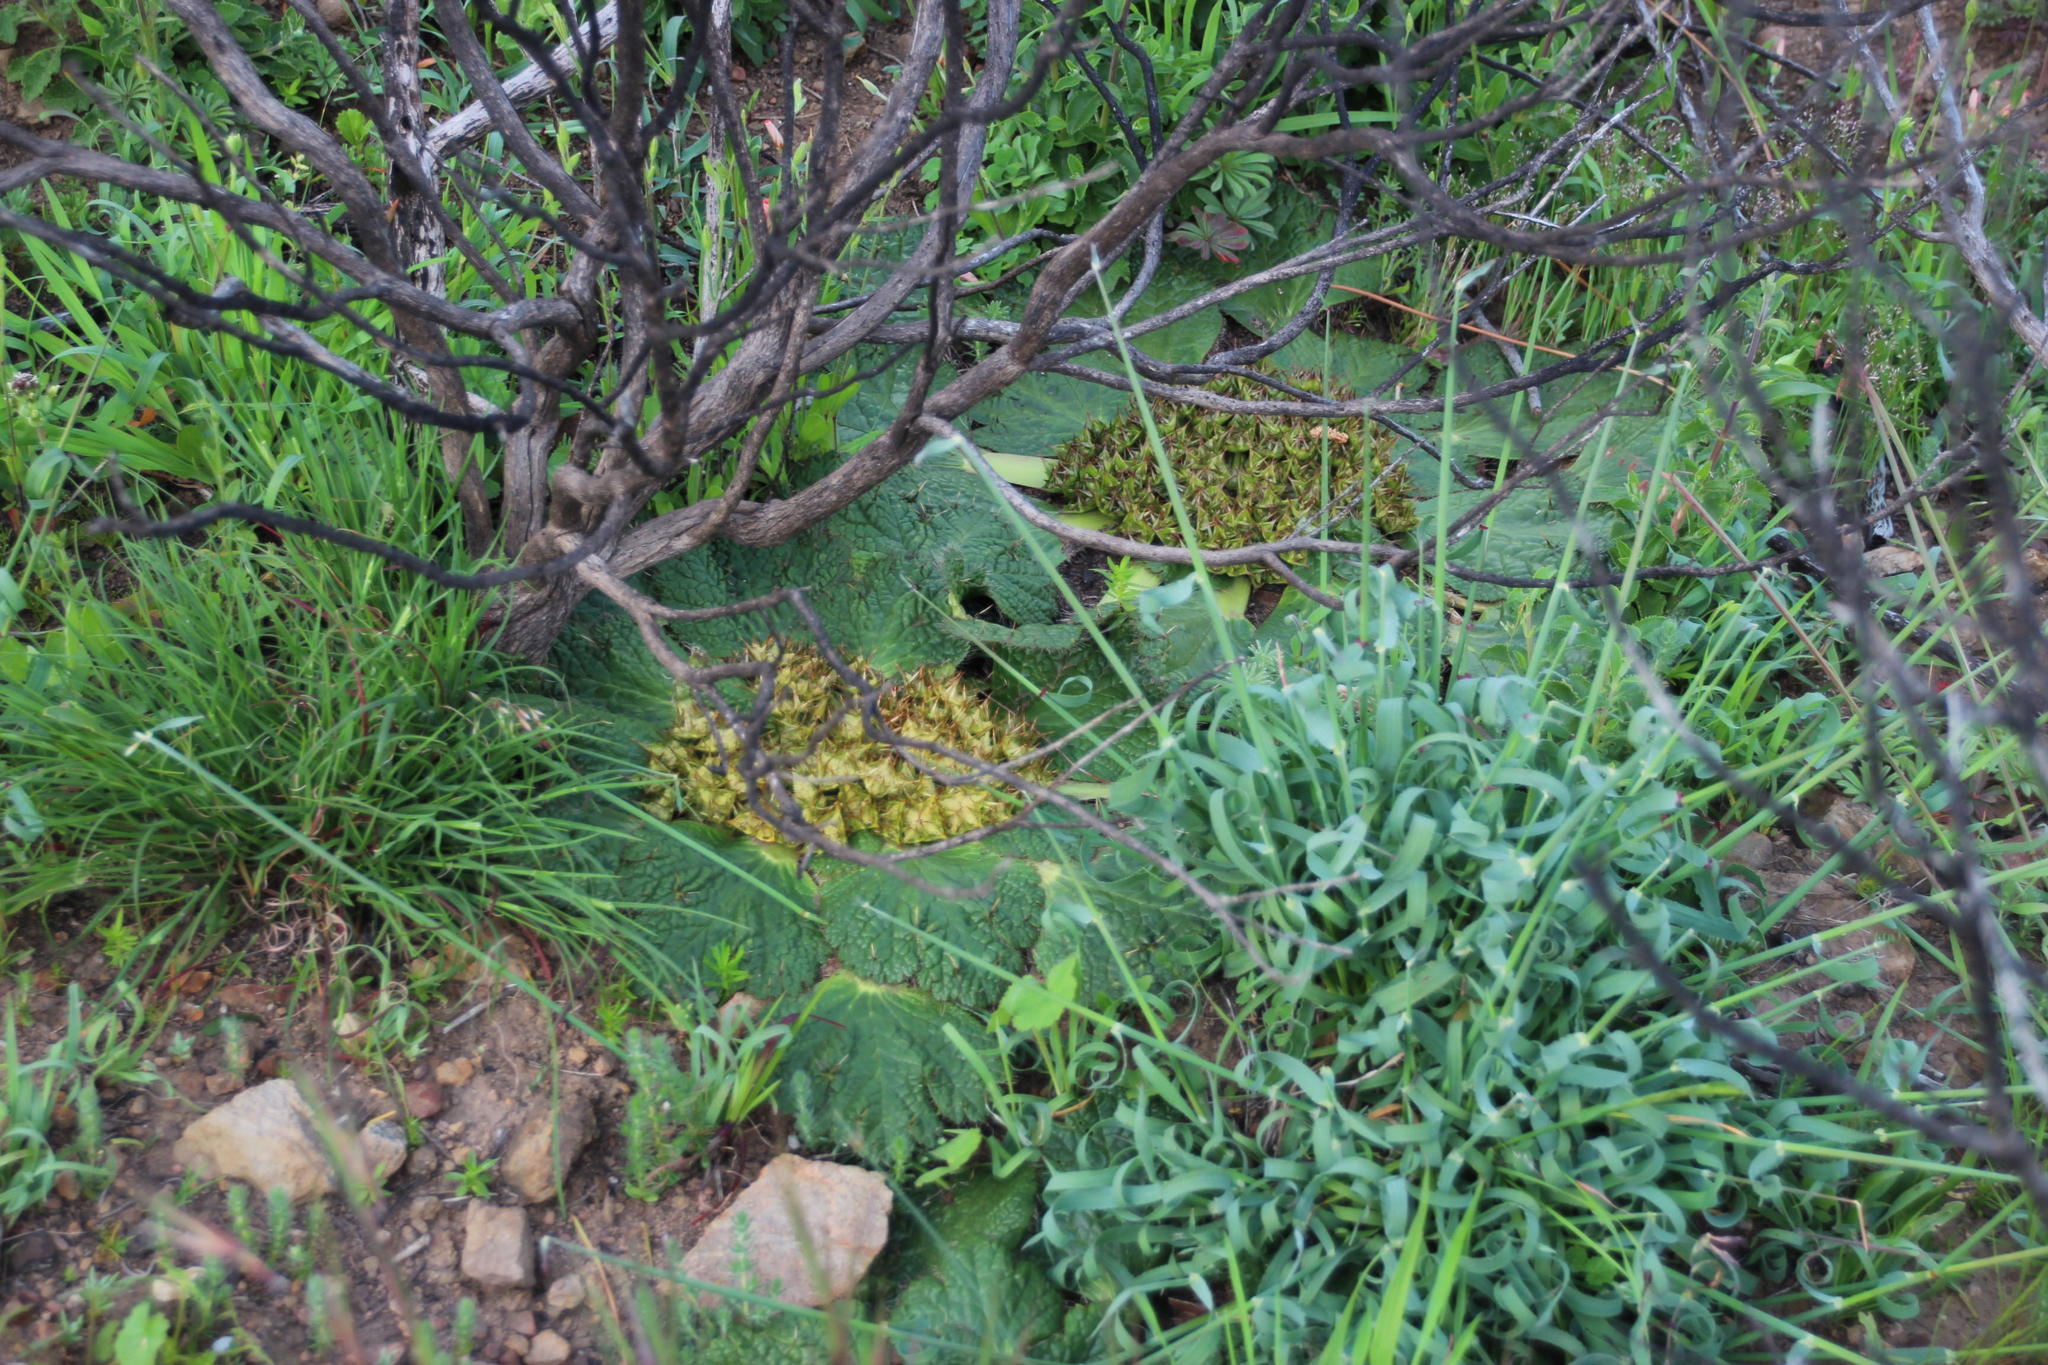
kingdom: Plantae
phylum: Tracheophyta
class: Magnoliopsida
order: Apiales
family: Apiaceae
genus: Arctopus
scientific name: Arctopus echinatus
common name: Platdoring
